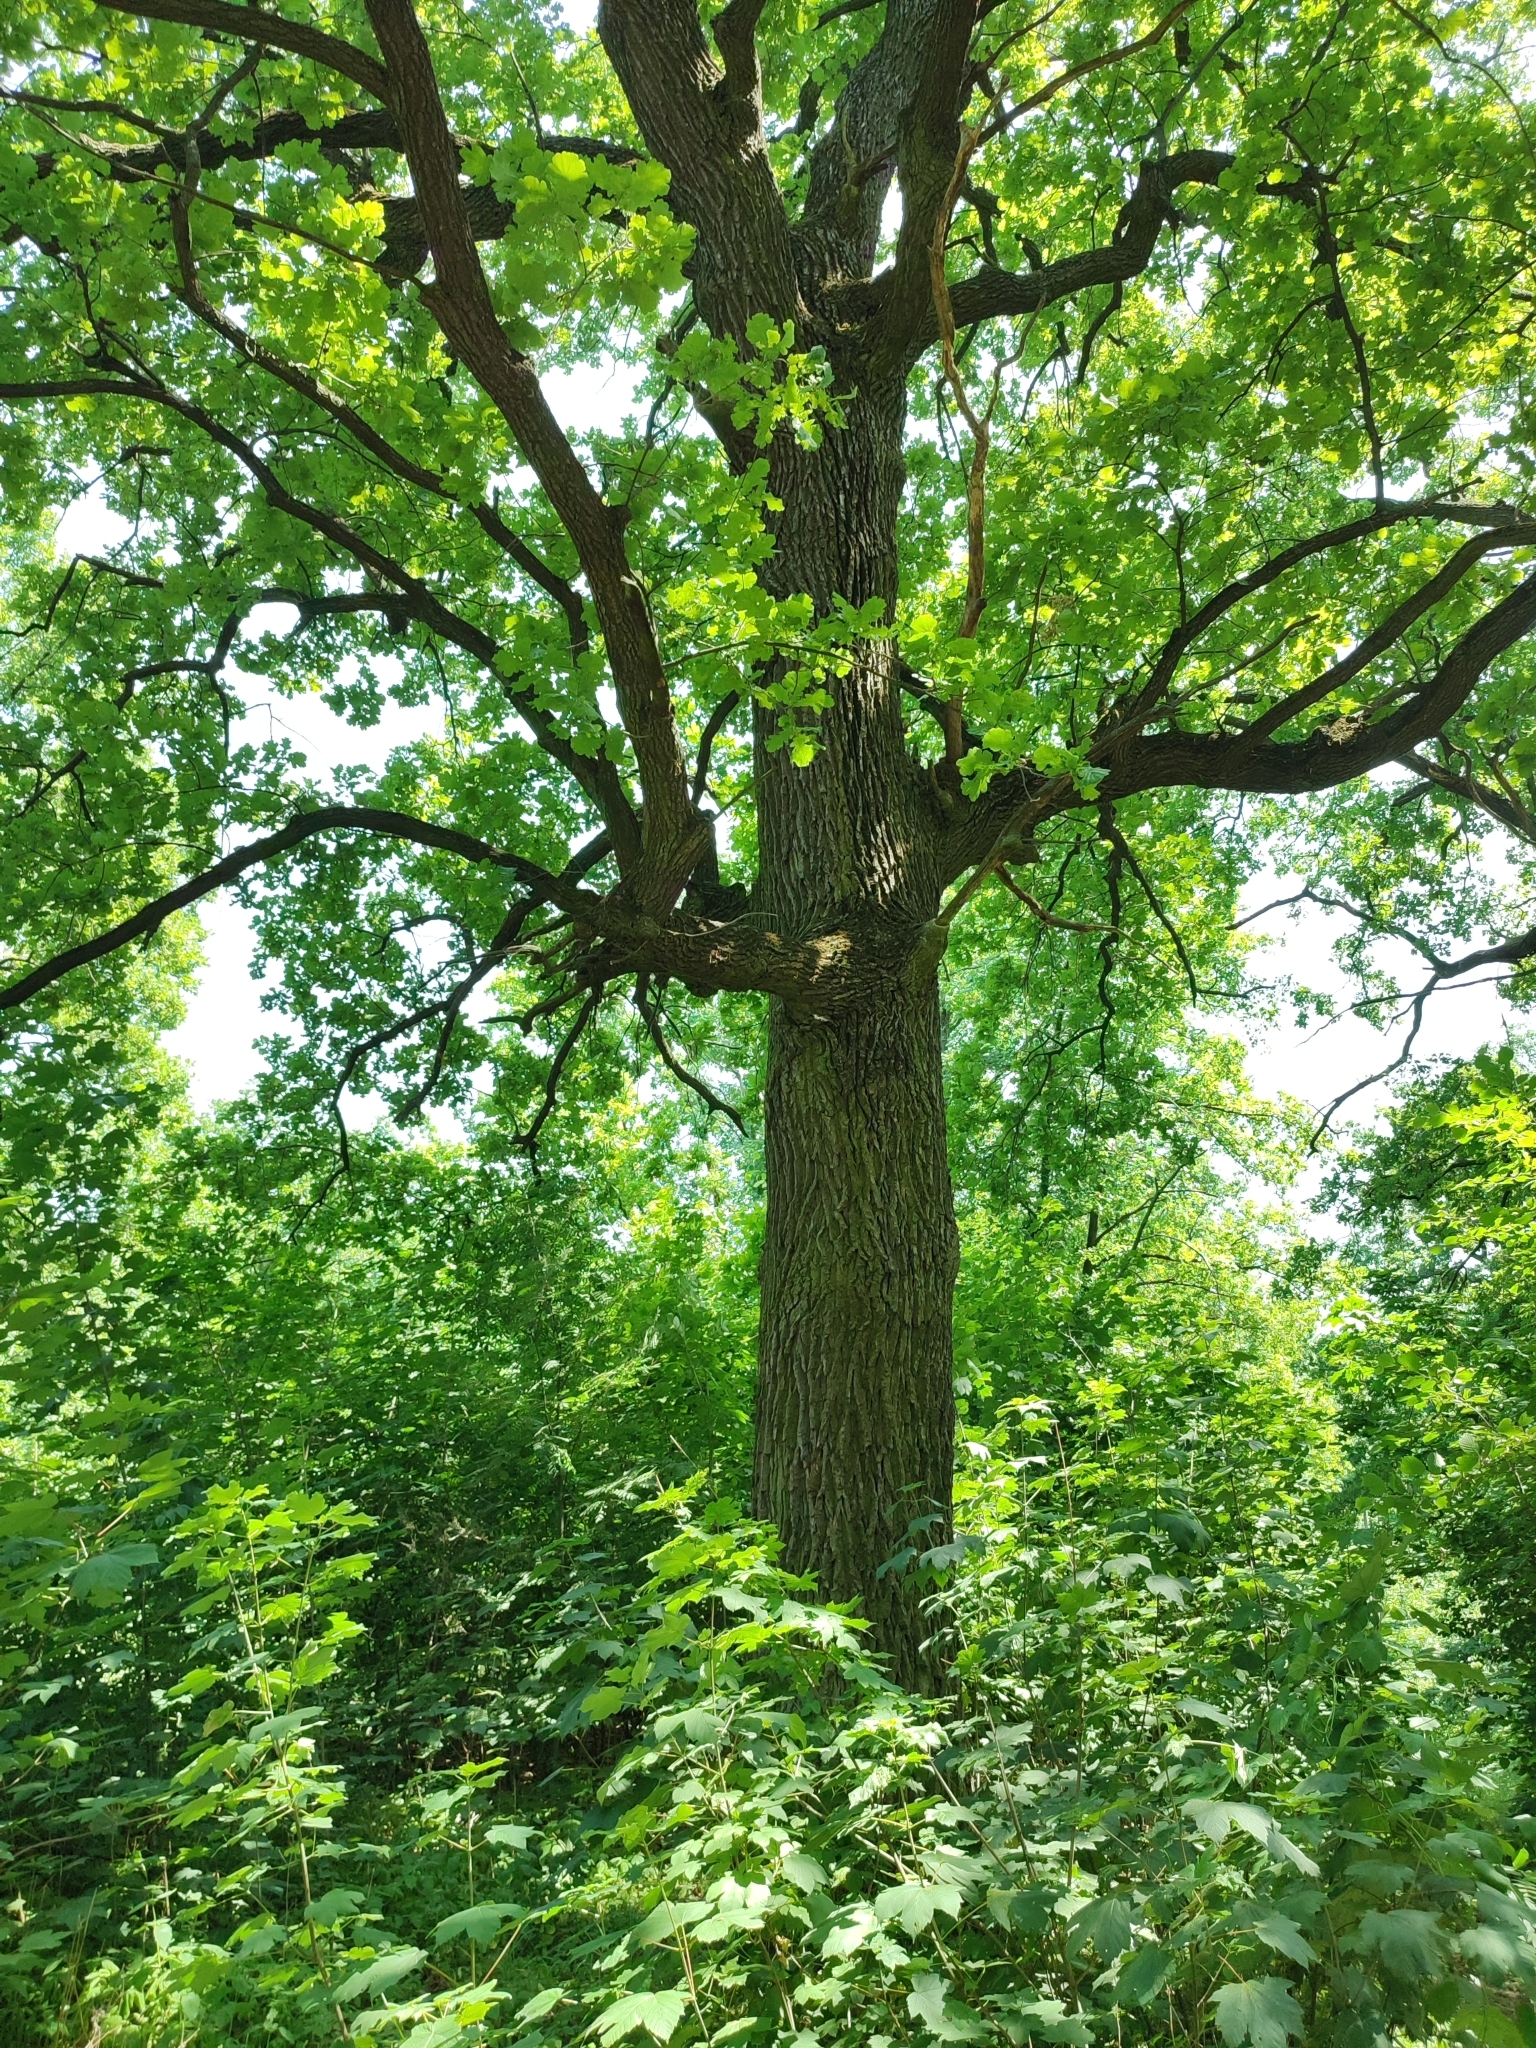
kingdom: Plantae
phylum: Tracheophyta
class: Magnoliopsida
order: Fagales
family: Fagaceae
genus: Quercus
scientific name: Quercus robur
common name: Pedunculate oak
